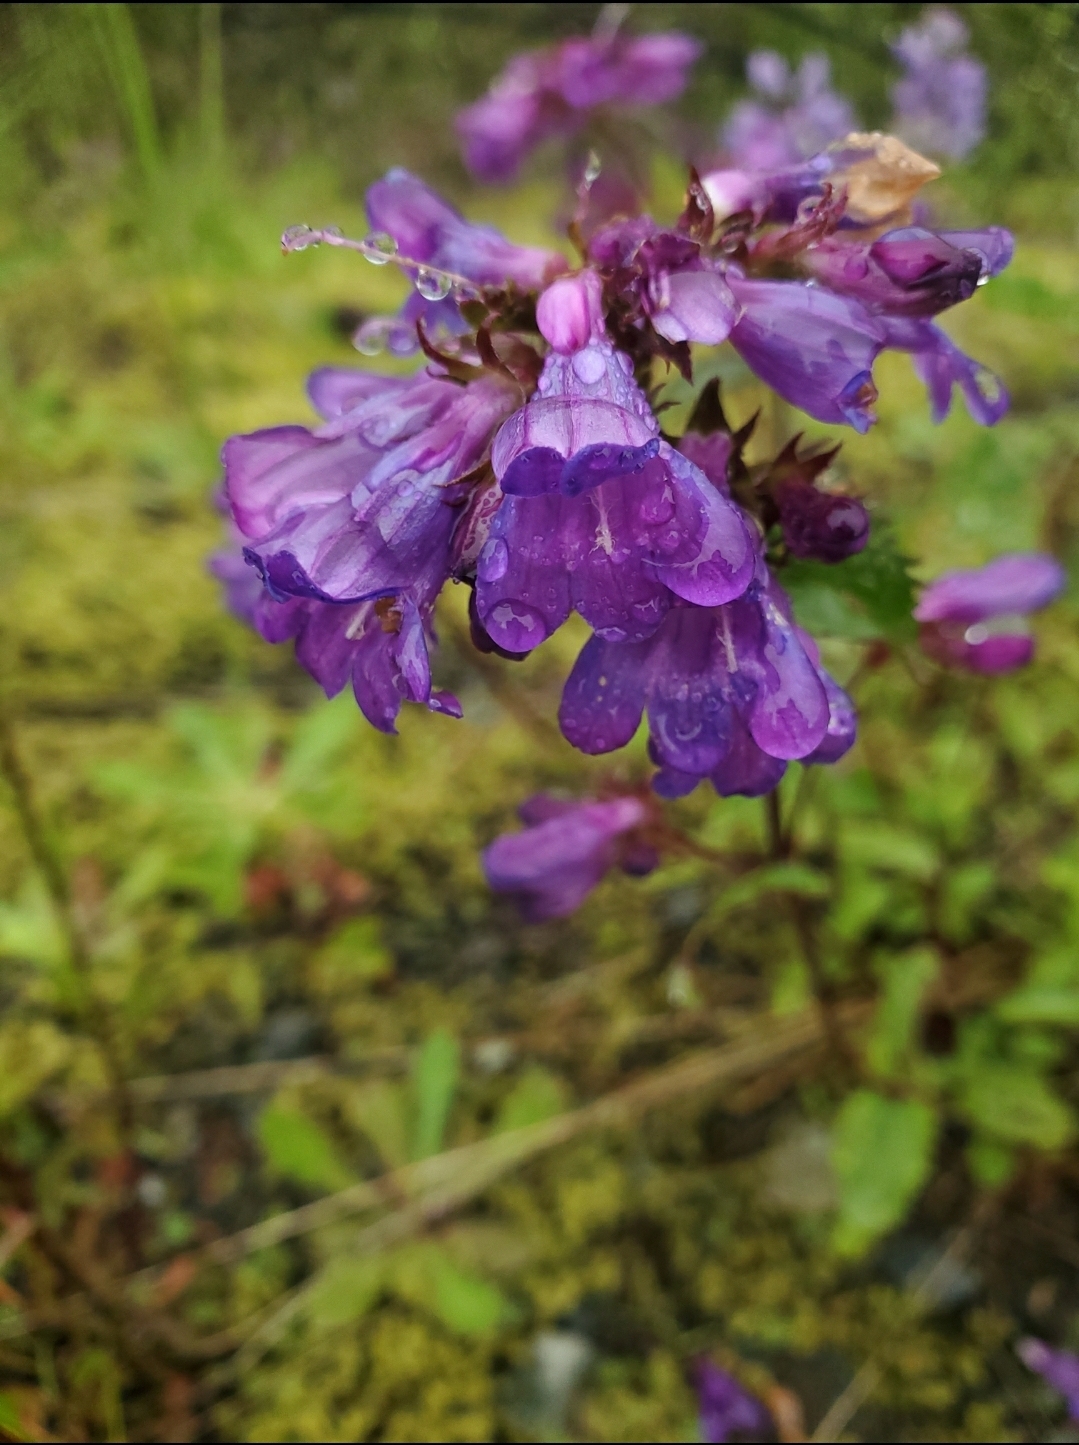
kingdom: Plantae
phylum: Tracheophyta
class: Magnoliopsida
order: Lamiales
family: Plantaginaceae
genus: Penstemon
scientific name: Penstemon serrulatus
